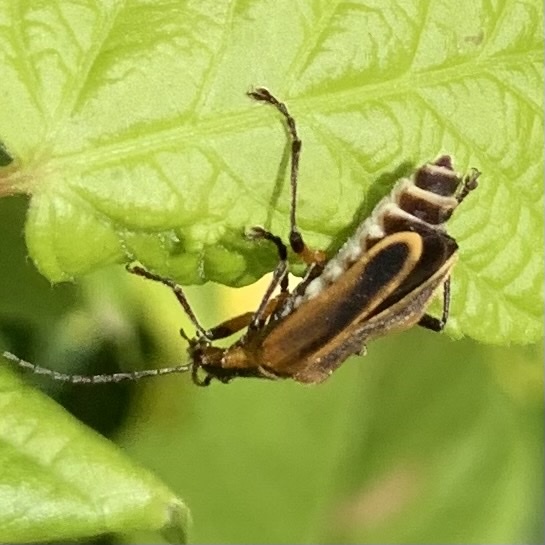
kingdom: Animalia
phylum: Arthropoda
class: Insecta
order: Coleoptera
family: Cantharidae
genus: Chauliognathus
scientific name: Chauliognathus marginatus
